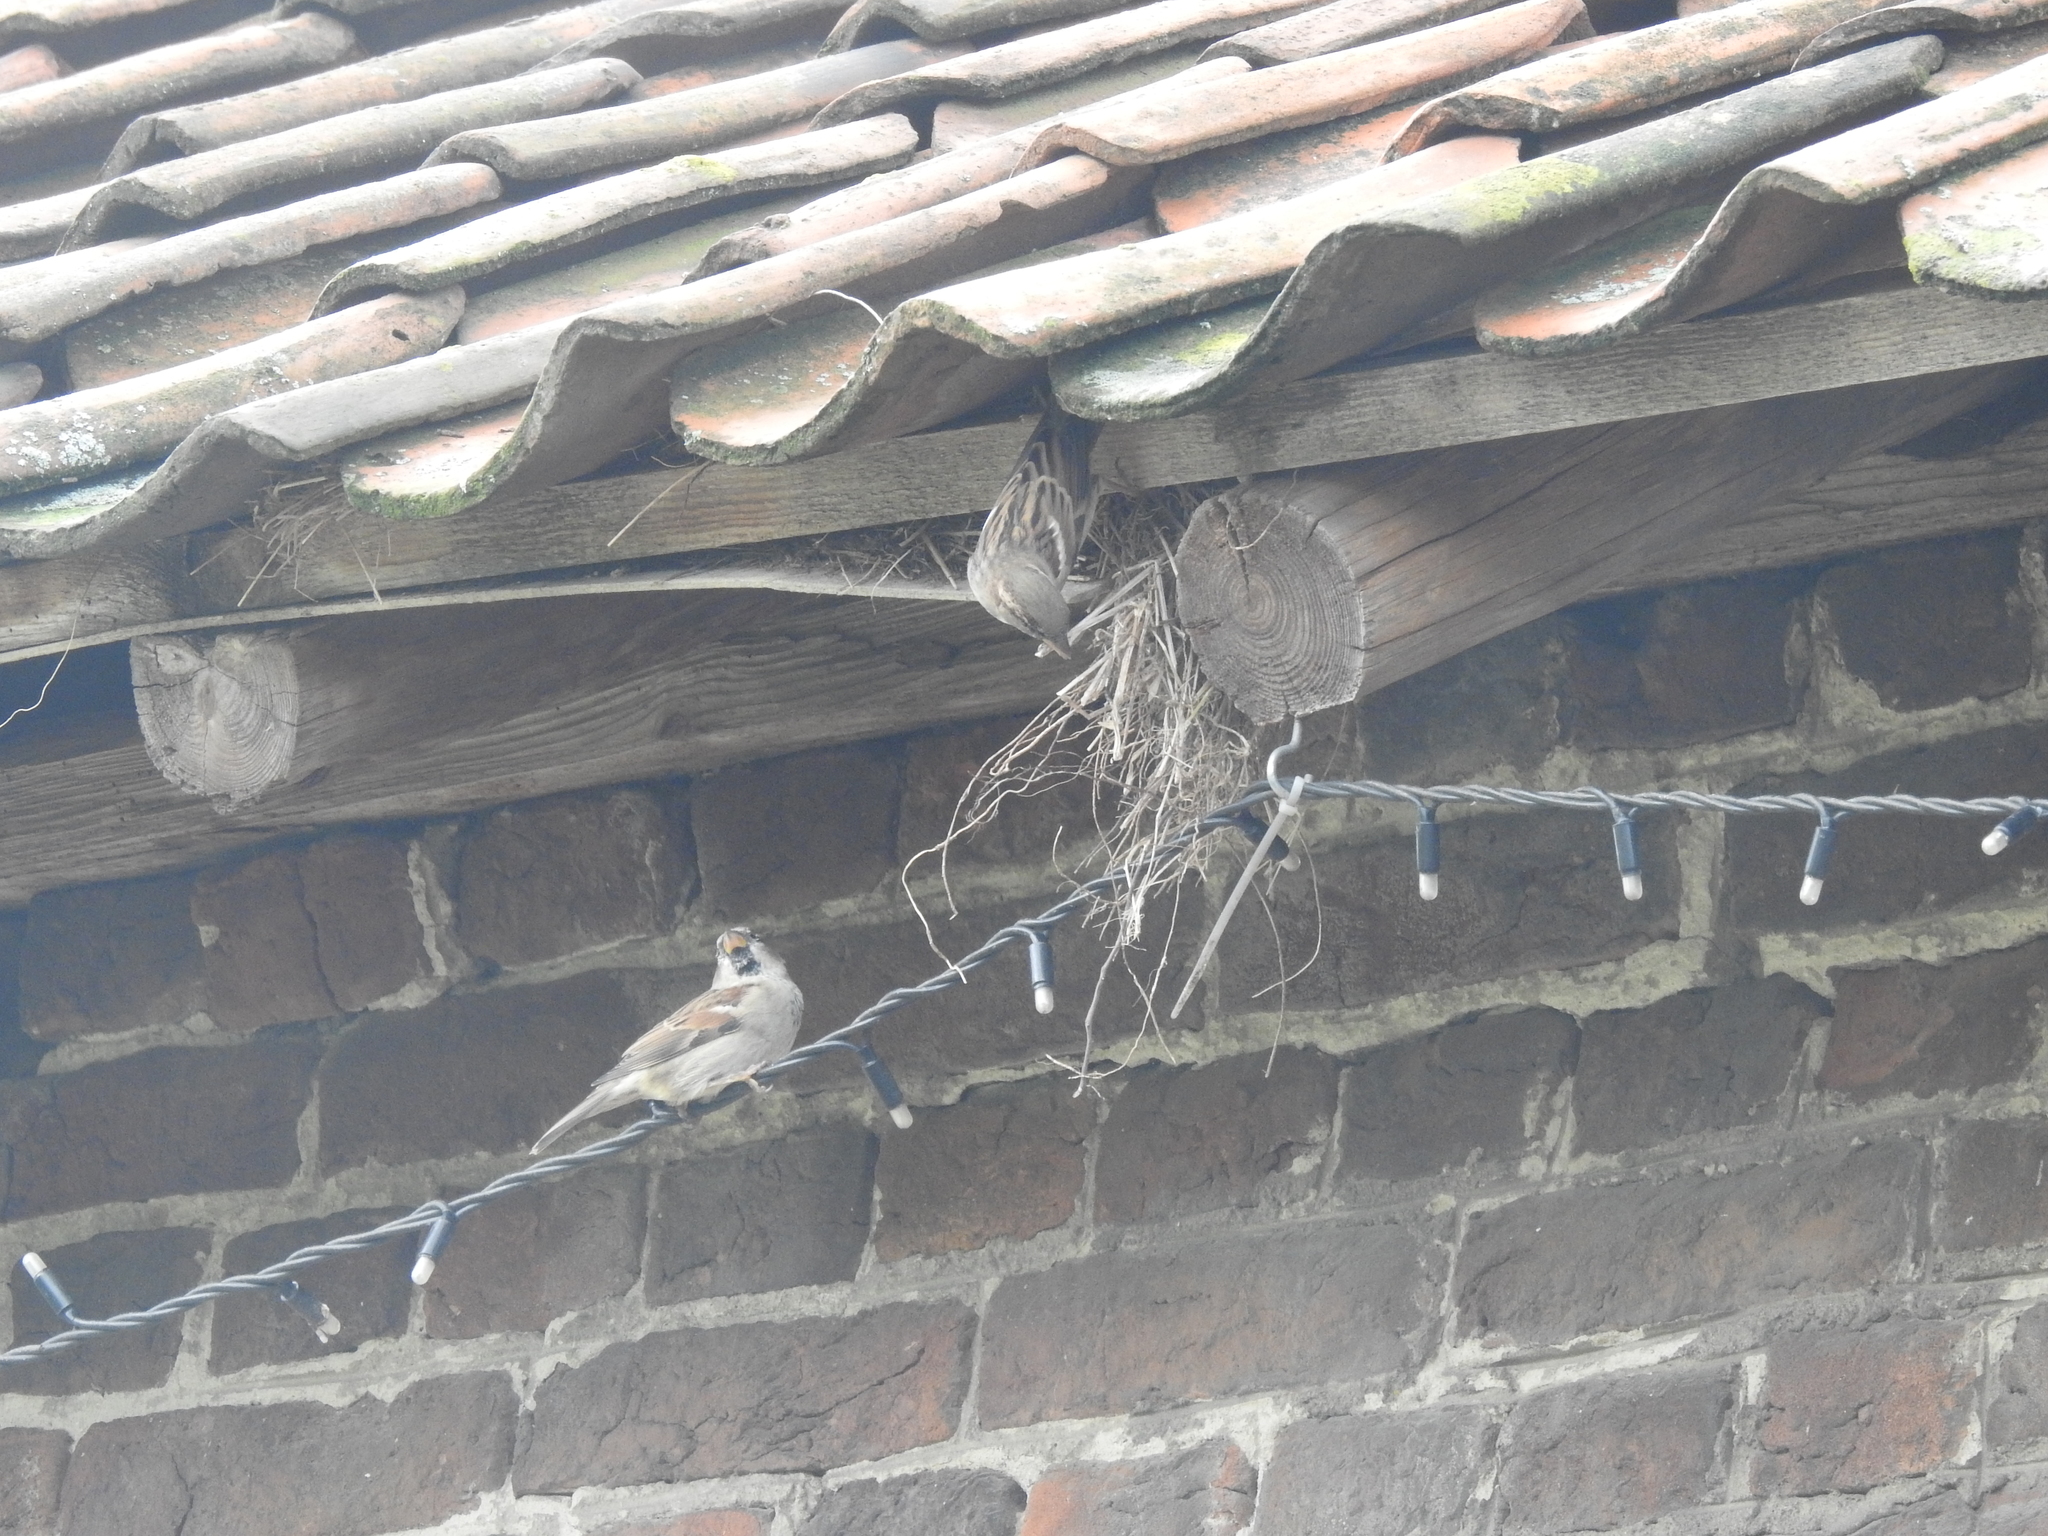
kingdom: Animalia
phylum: Chordata
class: Aves
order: Passeriformes
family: Passeridae
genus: Passer
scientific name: Passer domesticus
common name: House sparrow
